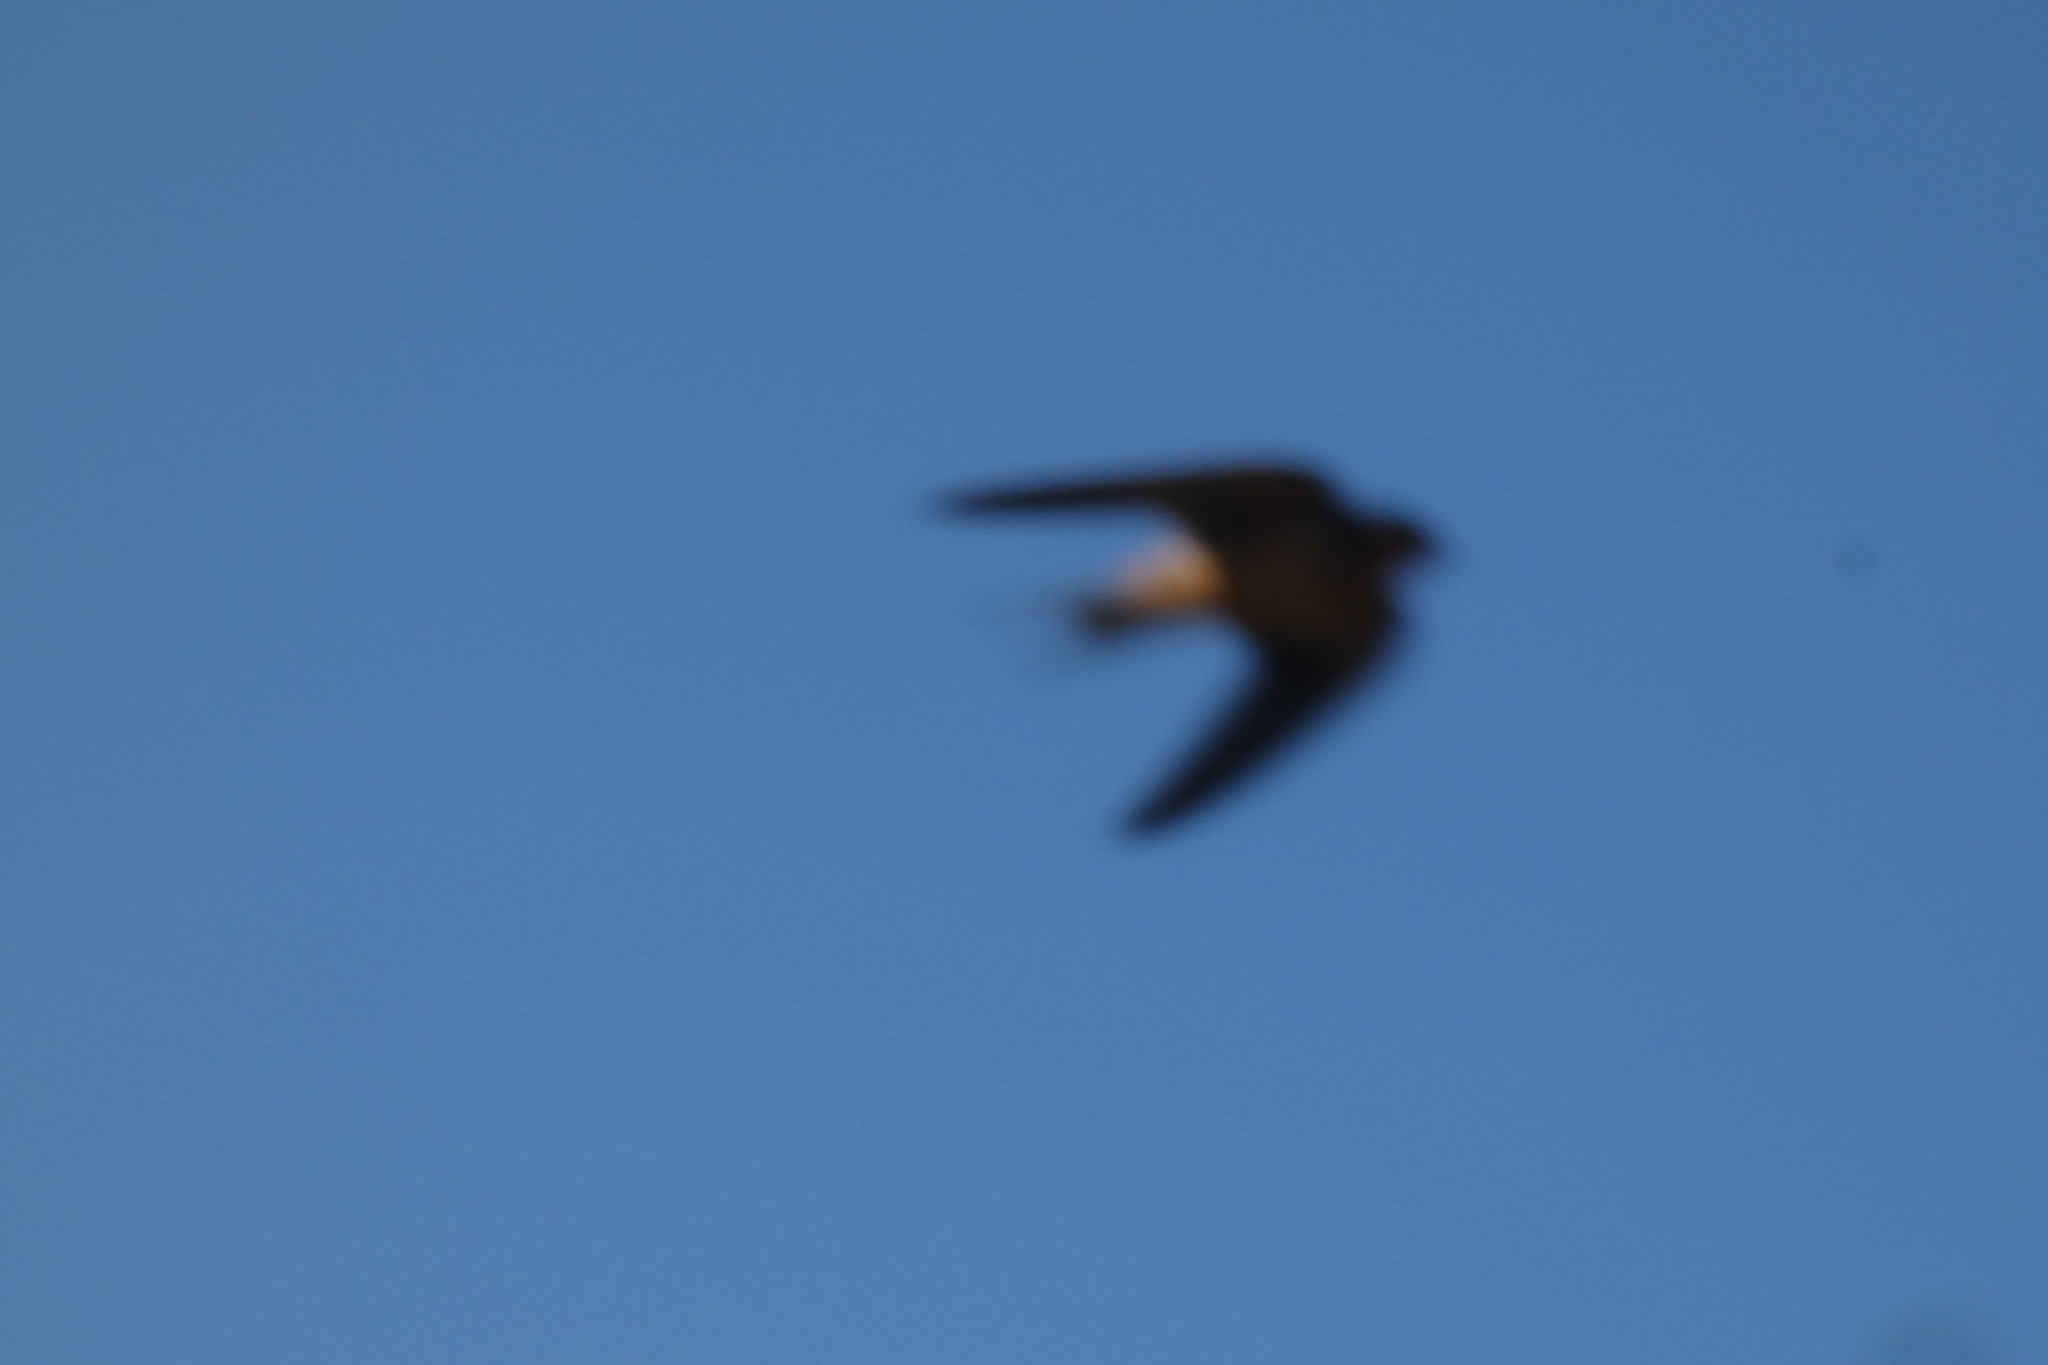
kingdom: Animalia
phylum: Chordata
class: Aves
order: Passeriformes
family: Hirundinidae
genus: Hirundo
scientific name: Hirundo rustica
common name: Barn swallow
